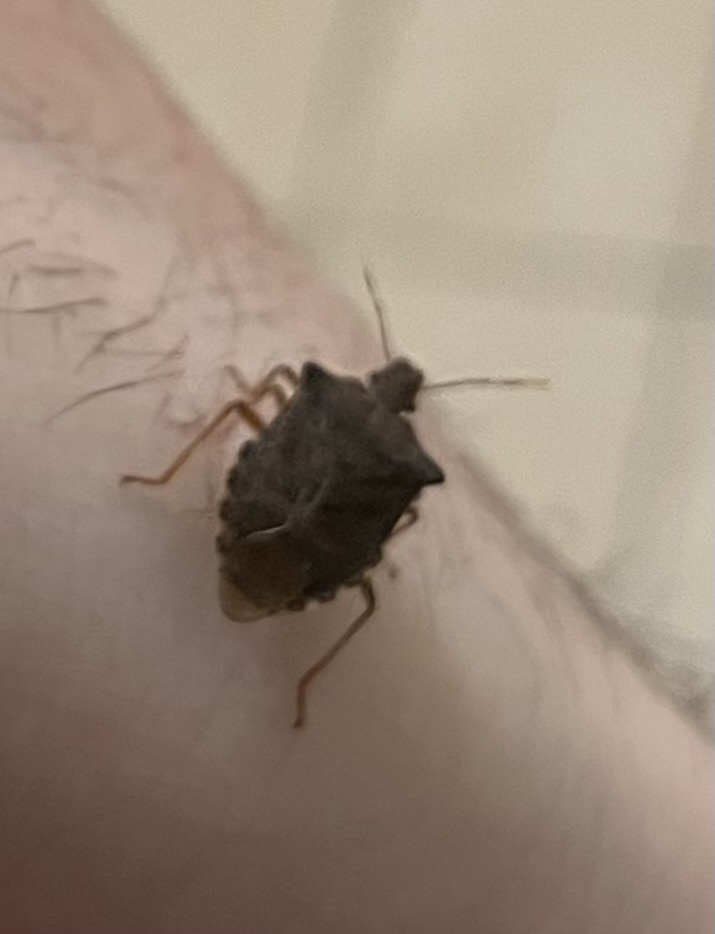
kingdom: Animalia
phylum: Arthropoda
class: Insecta
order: Hemiptera
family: Pentatomidae
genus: Arma
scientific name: Arma custos
